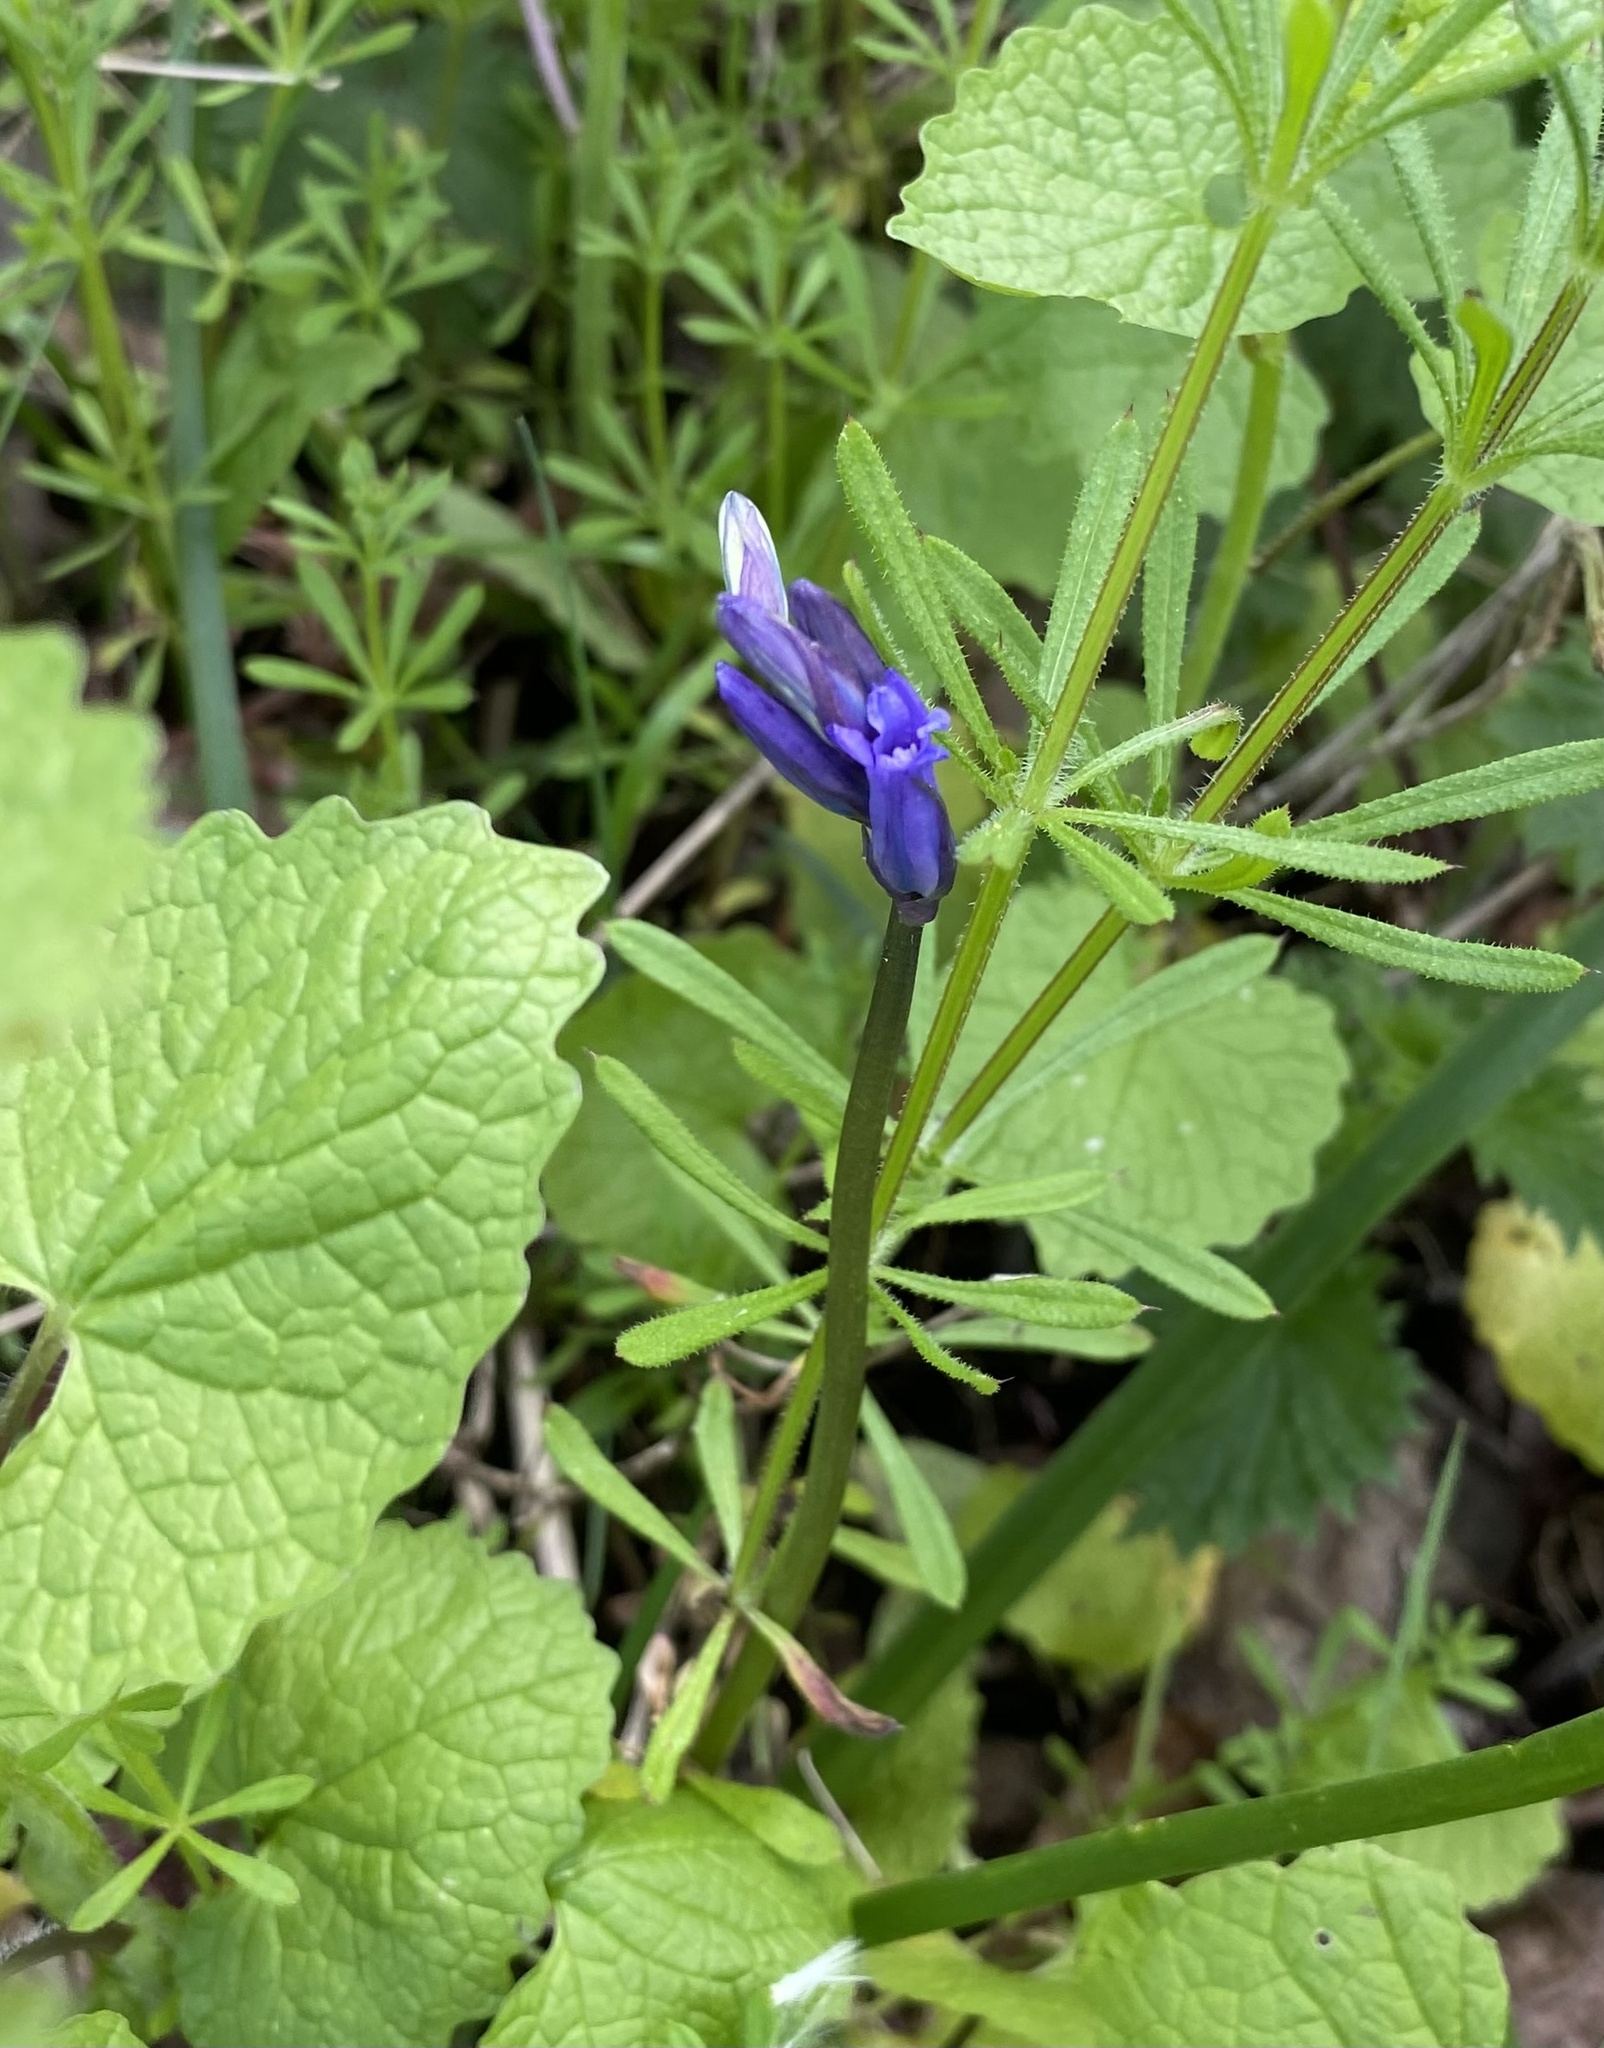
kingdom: Plantae
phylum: Tracheophyta
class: Liliopsida
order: Asparagales
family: Asparagaceae
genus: Hyacinthoides
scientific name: Hyacinthoides non-scripta
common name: Bluebell
